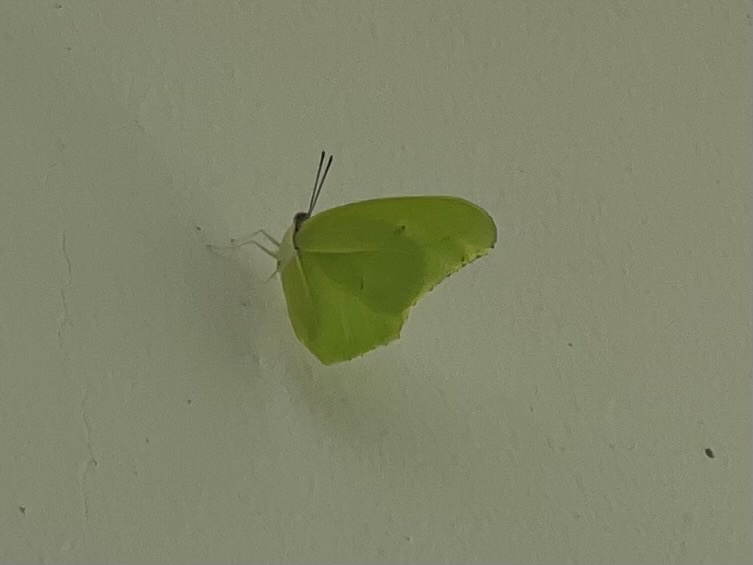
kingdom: Animalia
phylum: Arthropoda
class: Insecta
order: Lepidoptera
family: Pieridae
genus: Anteos
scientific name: Anteos maerula
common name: Angled sulphur
